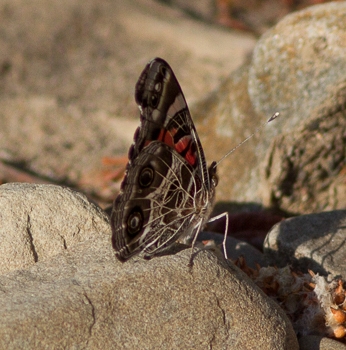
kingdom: Animalia
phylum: Arthropoda
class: Insecta
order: Lepidoptera
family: Nymphalidae
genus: Vanessa
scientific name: Vanessa virginiensis
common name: American lady
